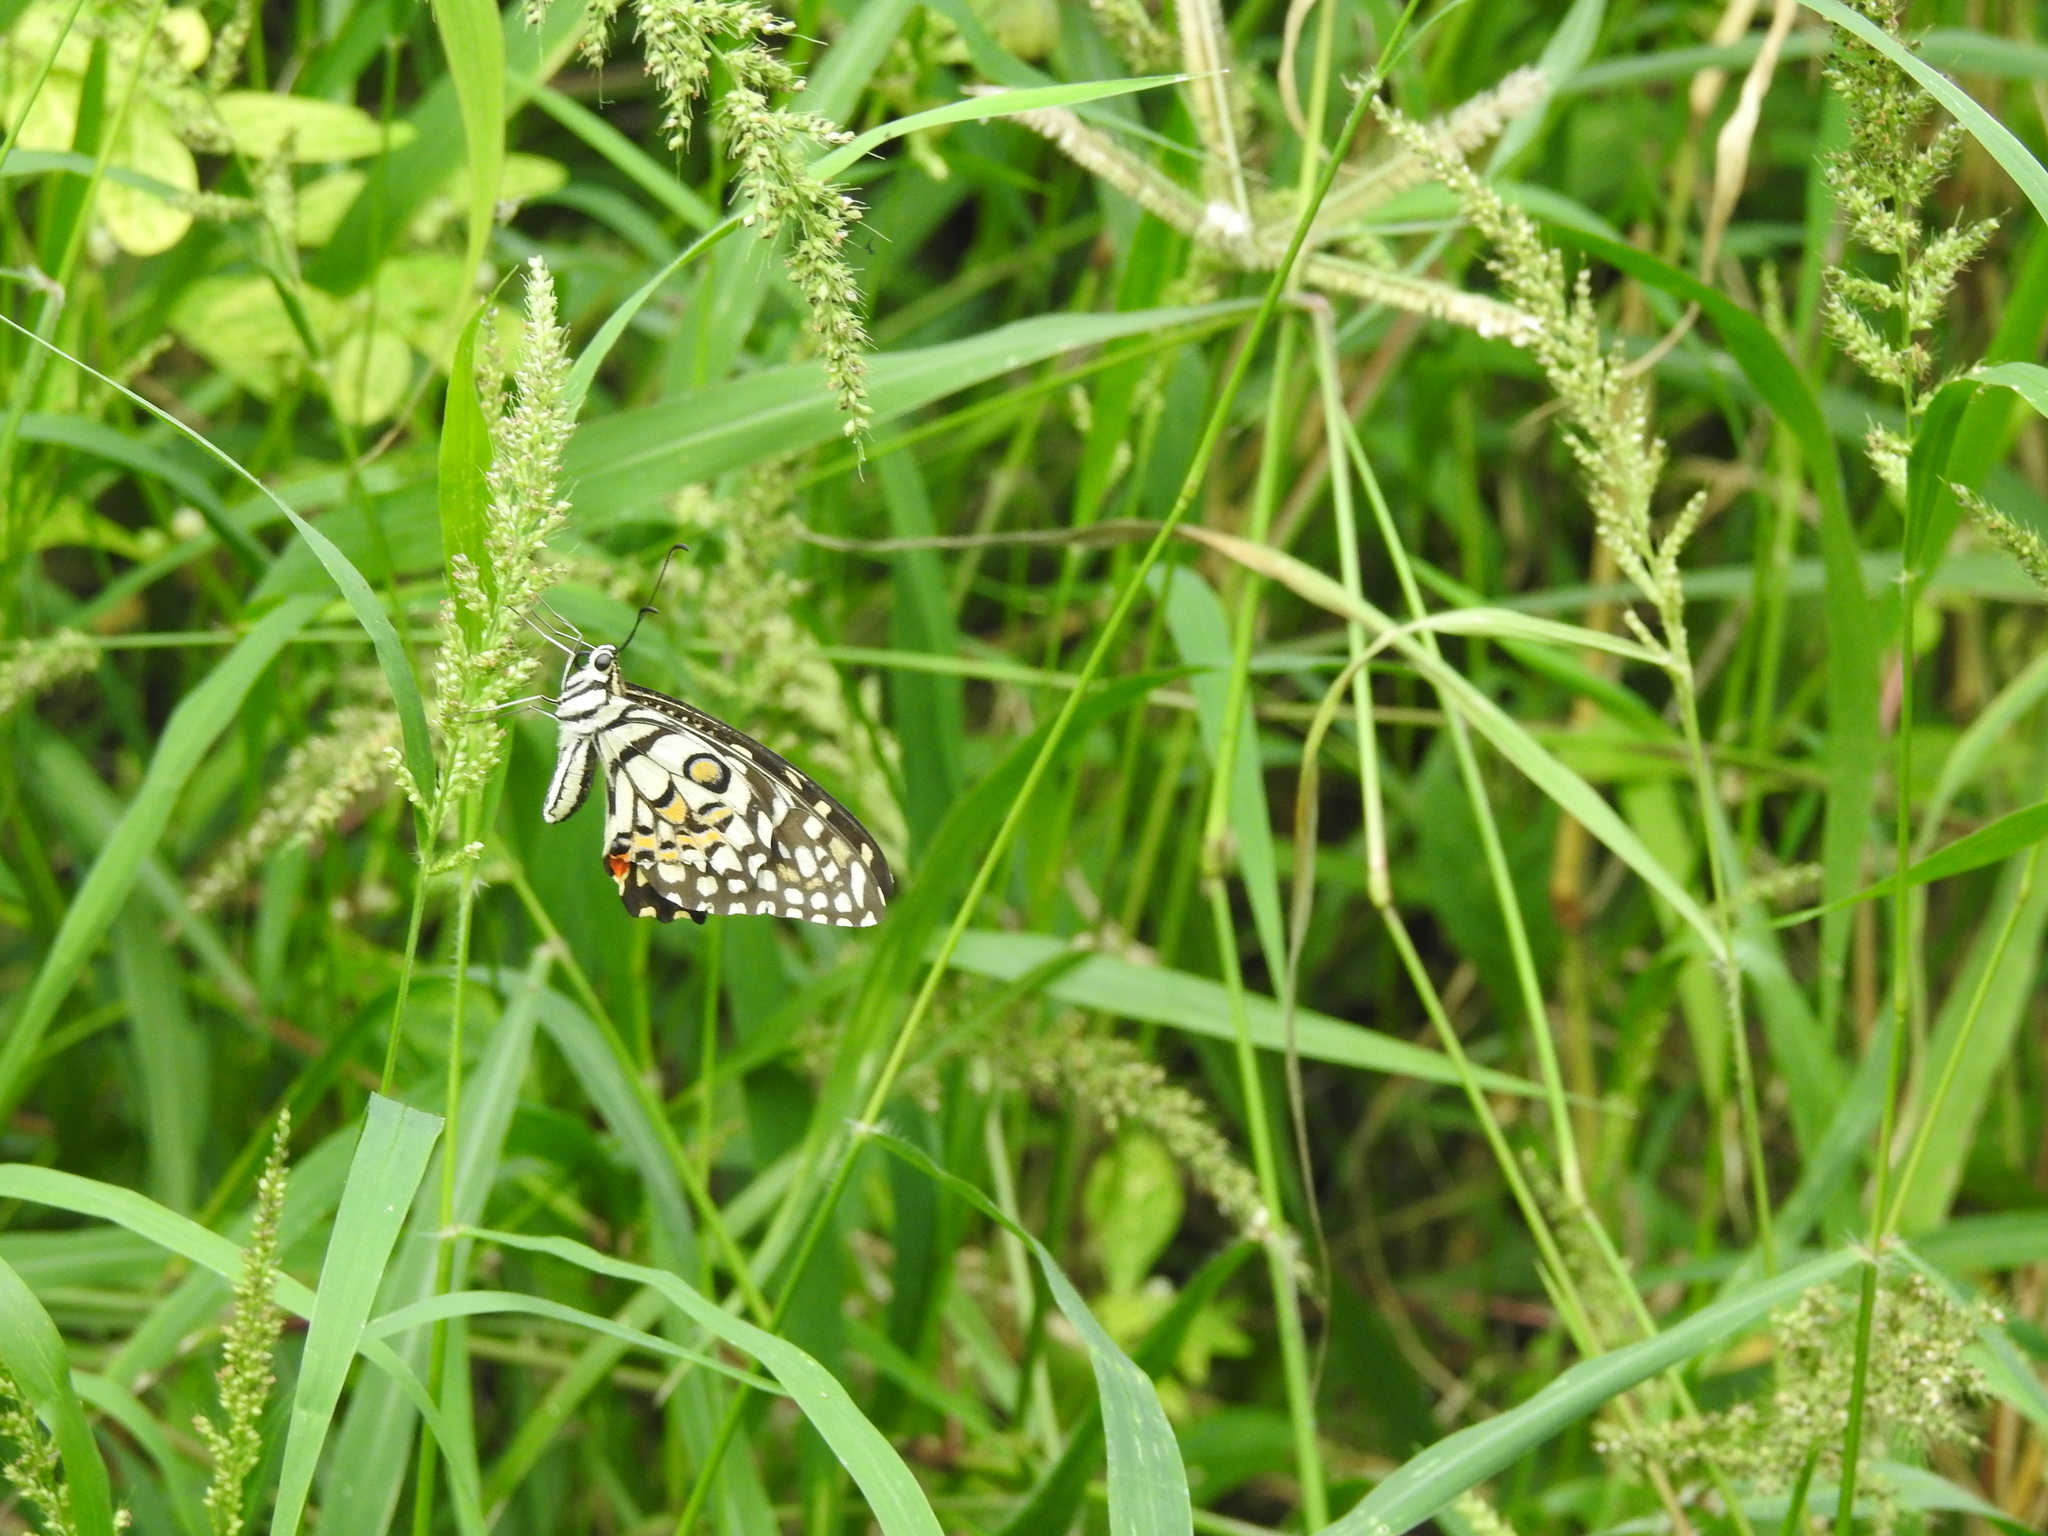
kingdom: Animalia
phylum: Arthropoda
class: Insecta
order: Lepidoptera
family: Papilionidae
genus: Papilio
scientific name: Papilio demoleus
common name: Lime butterfly
